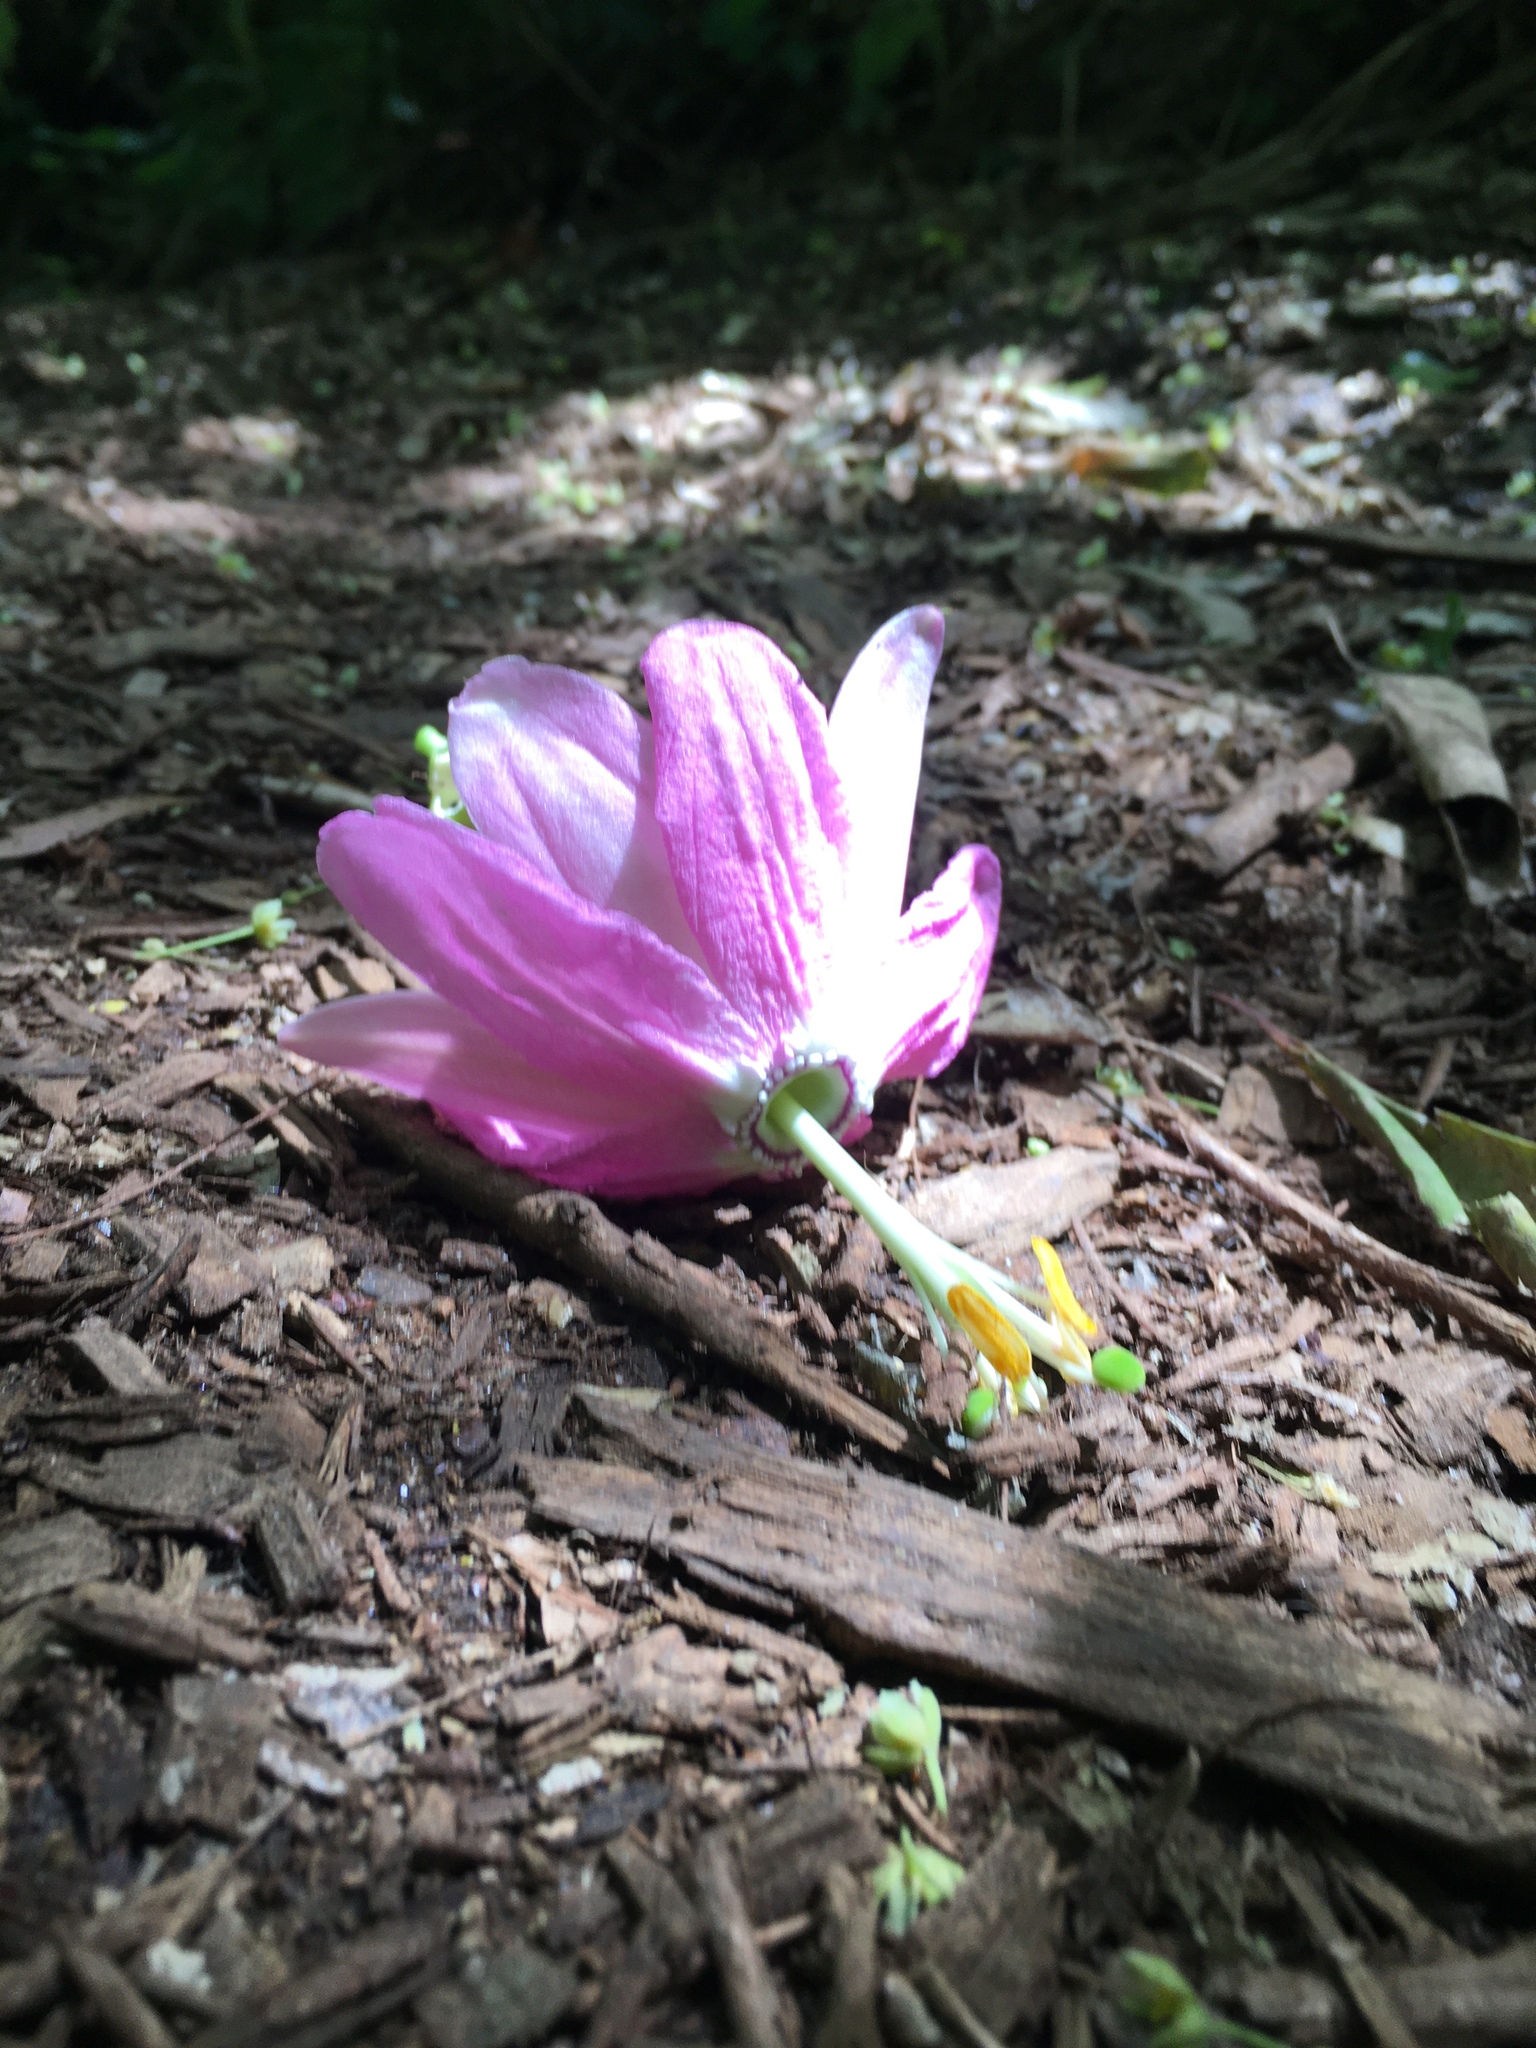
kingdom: Plantae
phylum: Tracheophyta
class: Magnoliopsida
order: Malpighiales
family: Passifloraceae
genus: Passiflora
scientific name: Passiflora tarminiana
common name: Banana poka
